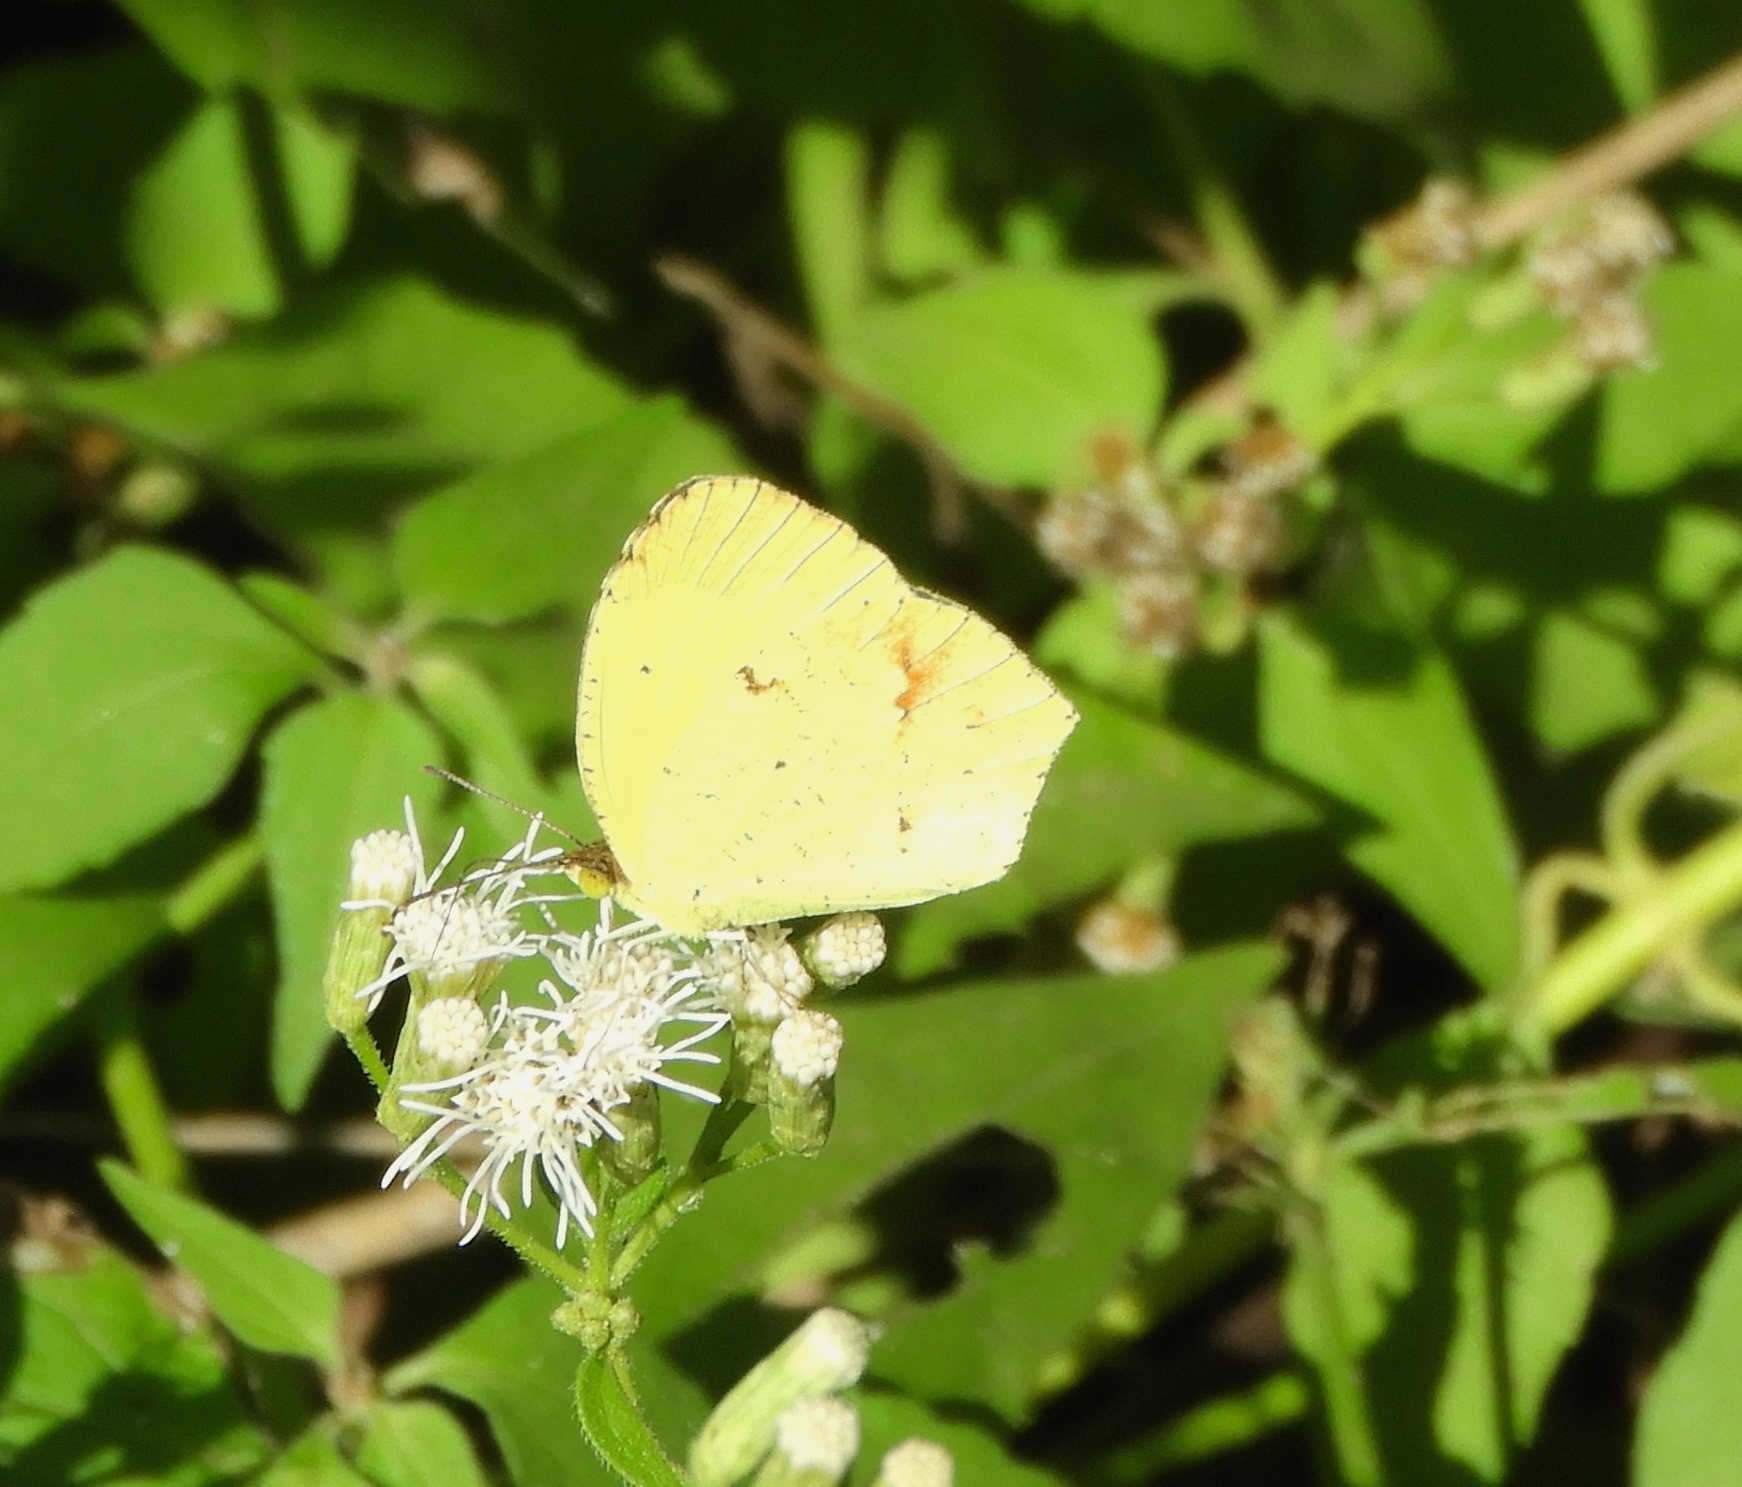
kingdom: Animalia
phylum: Arthropoda
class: Insecta
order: Lepidoptera
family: Pieridae
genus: Abaeis
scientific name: Abaeis boisduvaliana
